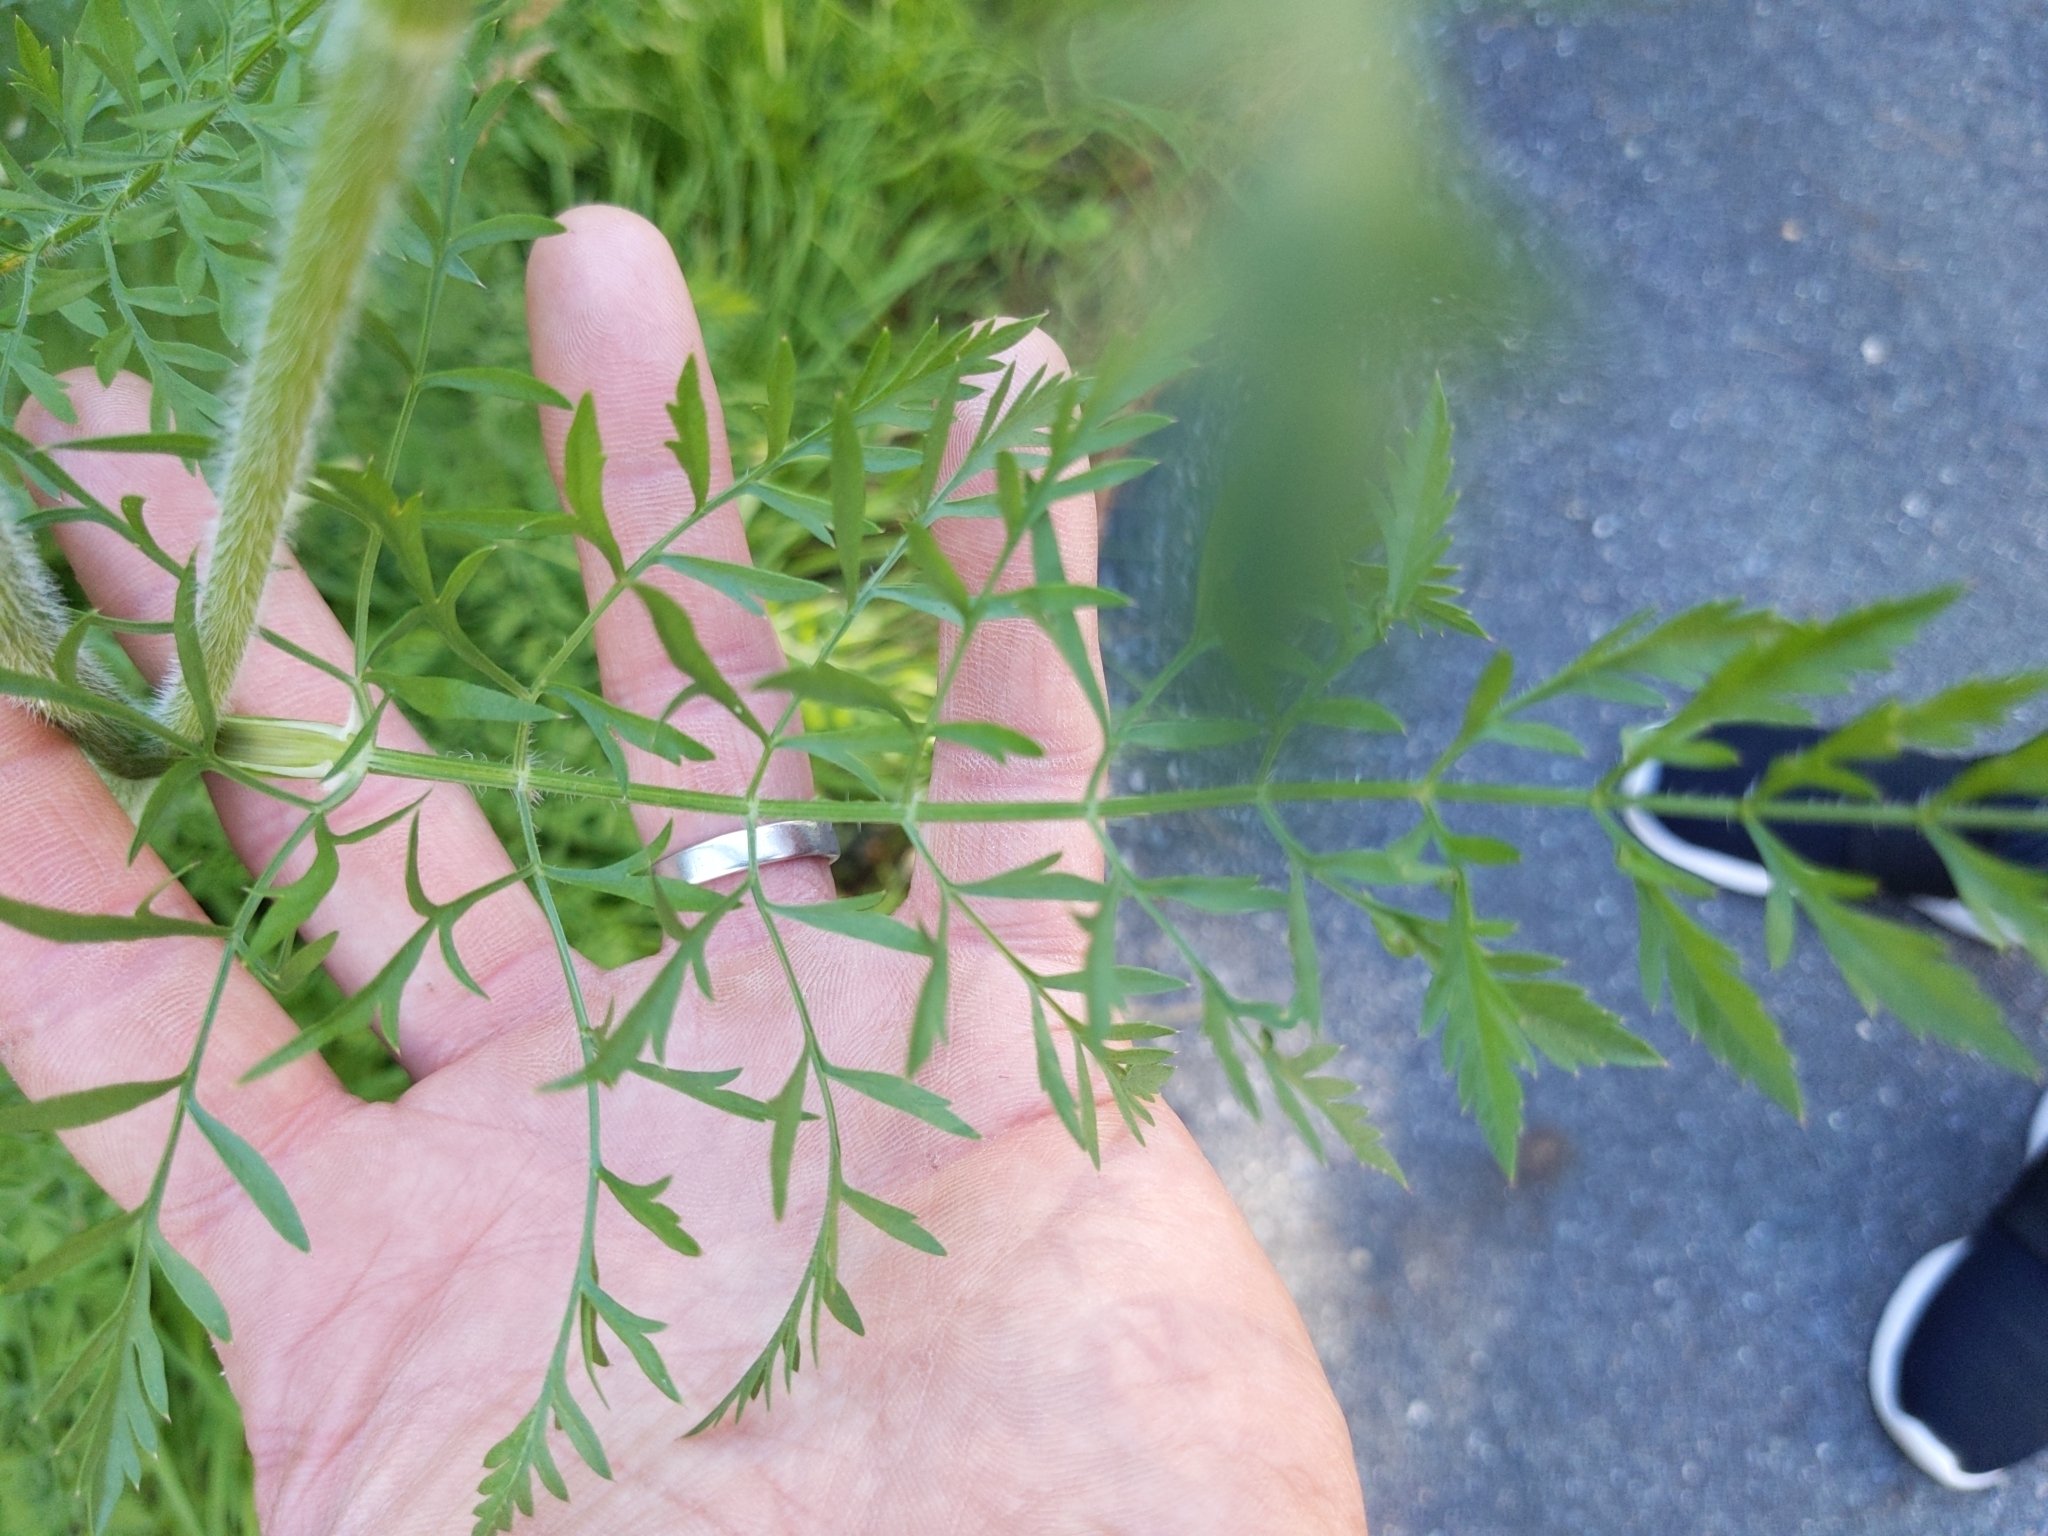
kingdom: Plantae
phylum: Tracheophyta
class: Magnoliopsida
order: Apiales
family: Apiaceae
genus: Daucus
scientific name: Daucus carota
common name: Wild carrot
